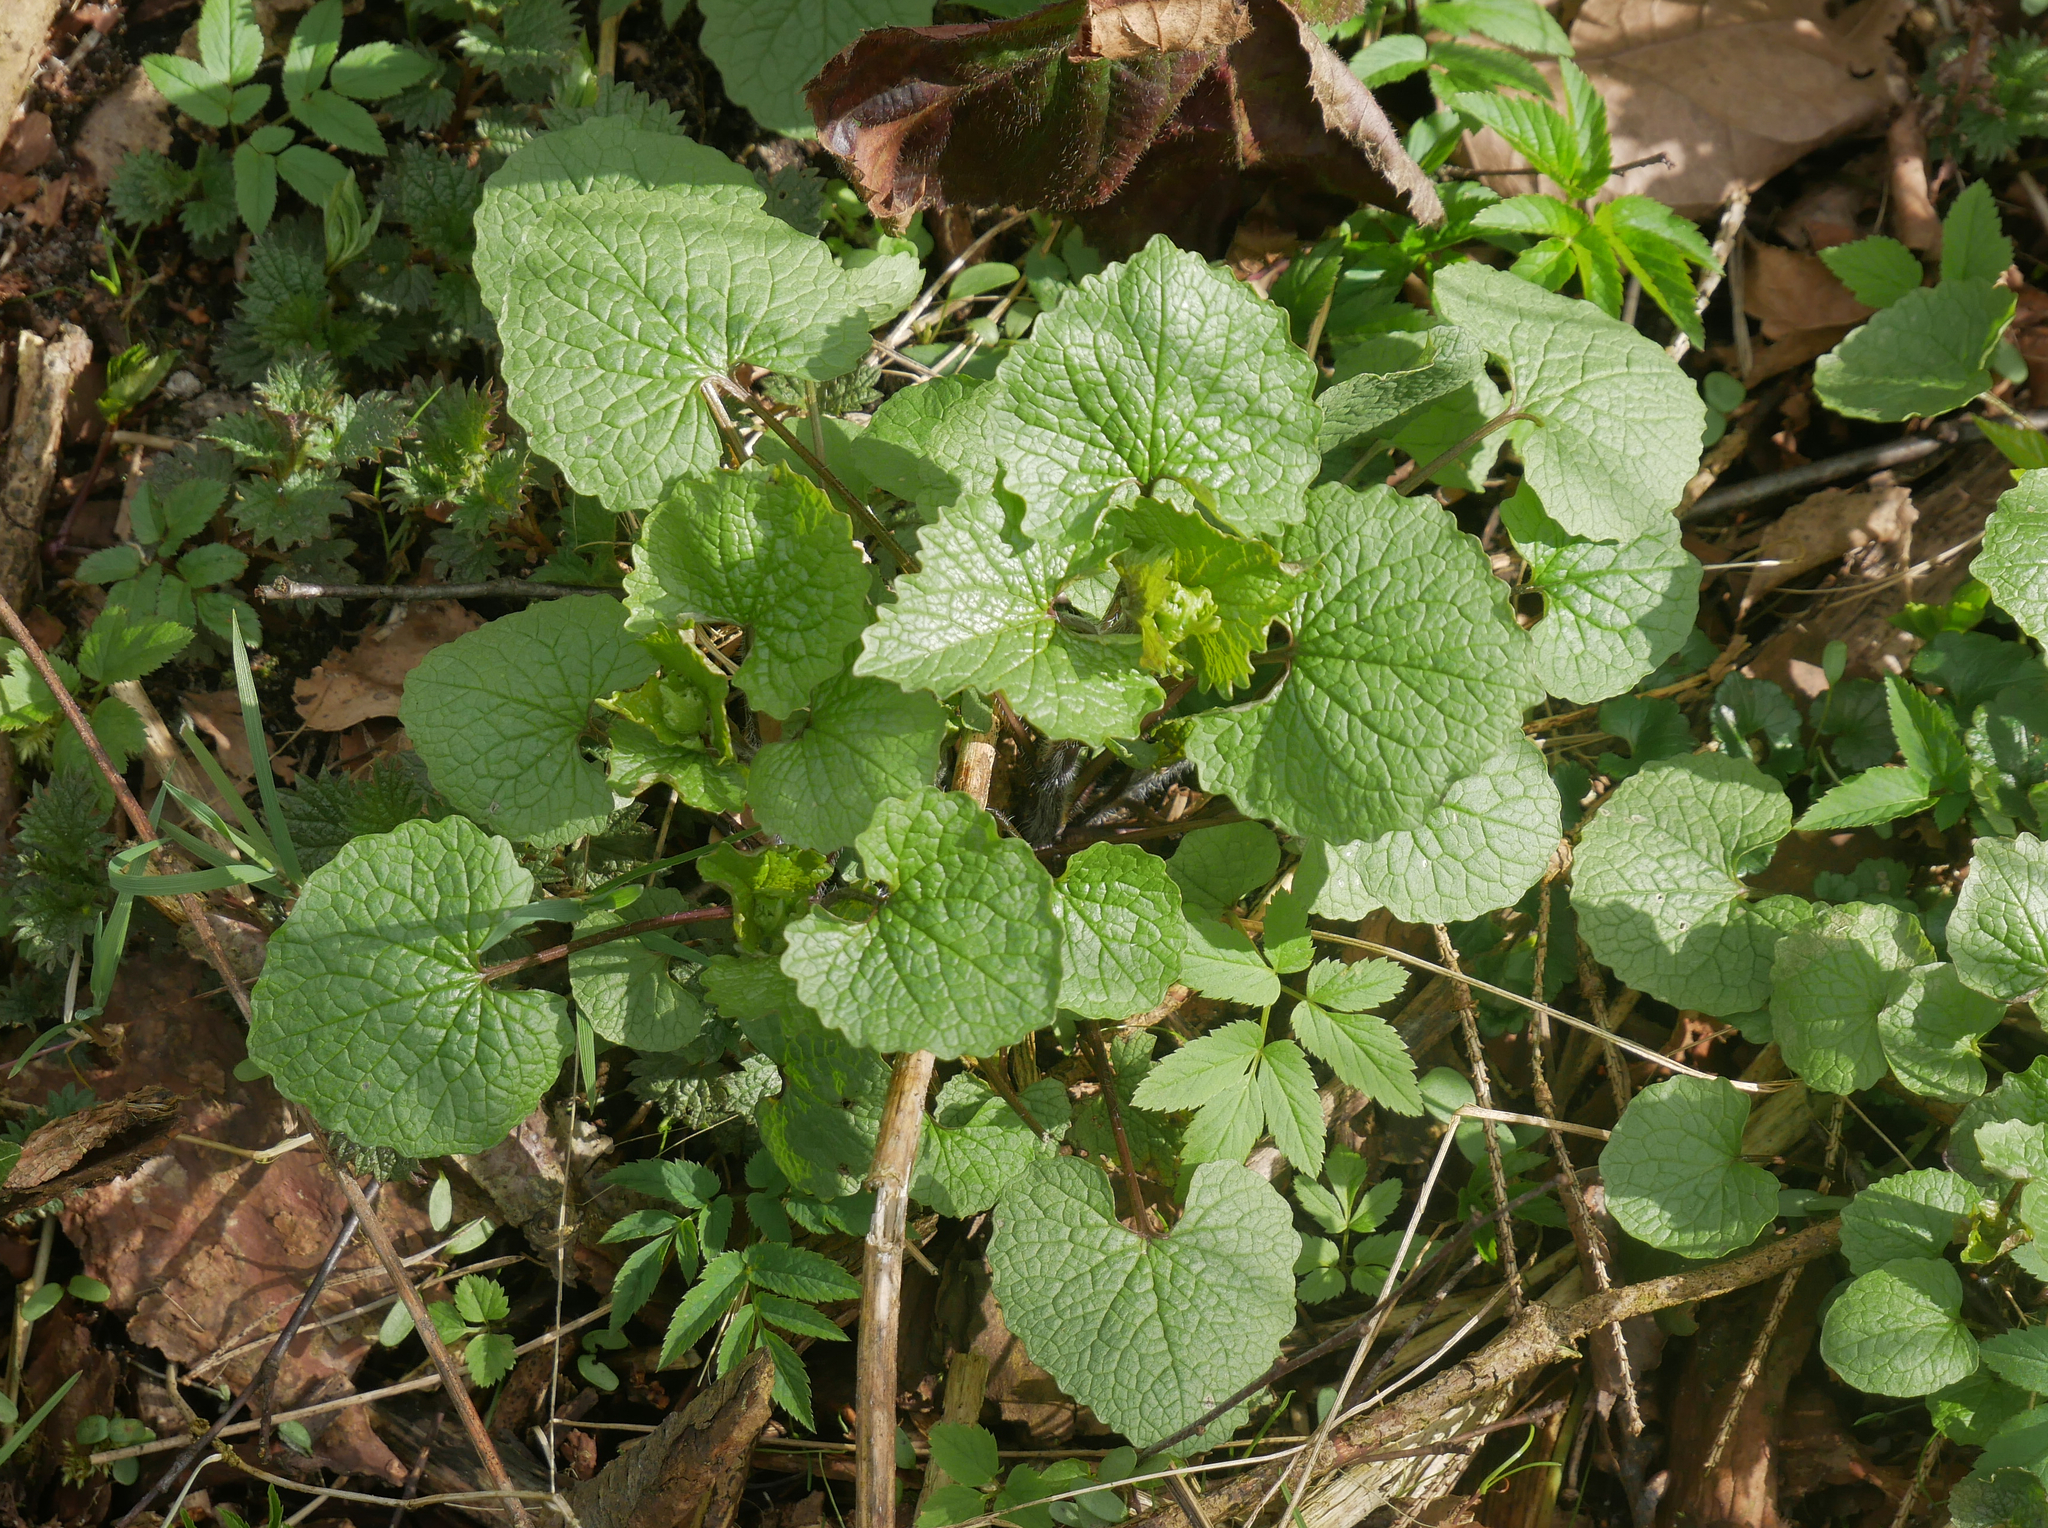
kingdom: Plantae
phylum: Tracheophyta
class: Magnoliopsida
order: Brassicales
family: Brassicaceae
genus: Alliaria
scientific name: Alliaria petiolata
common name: Garlic mustard
